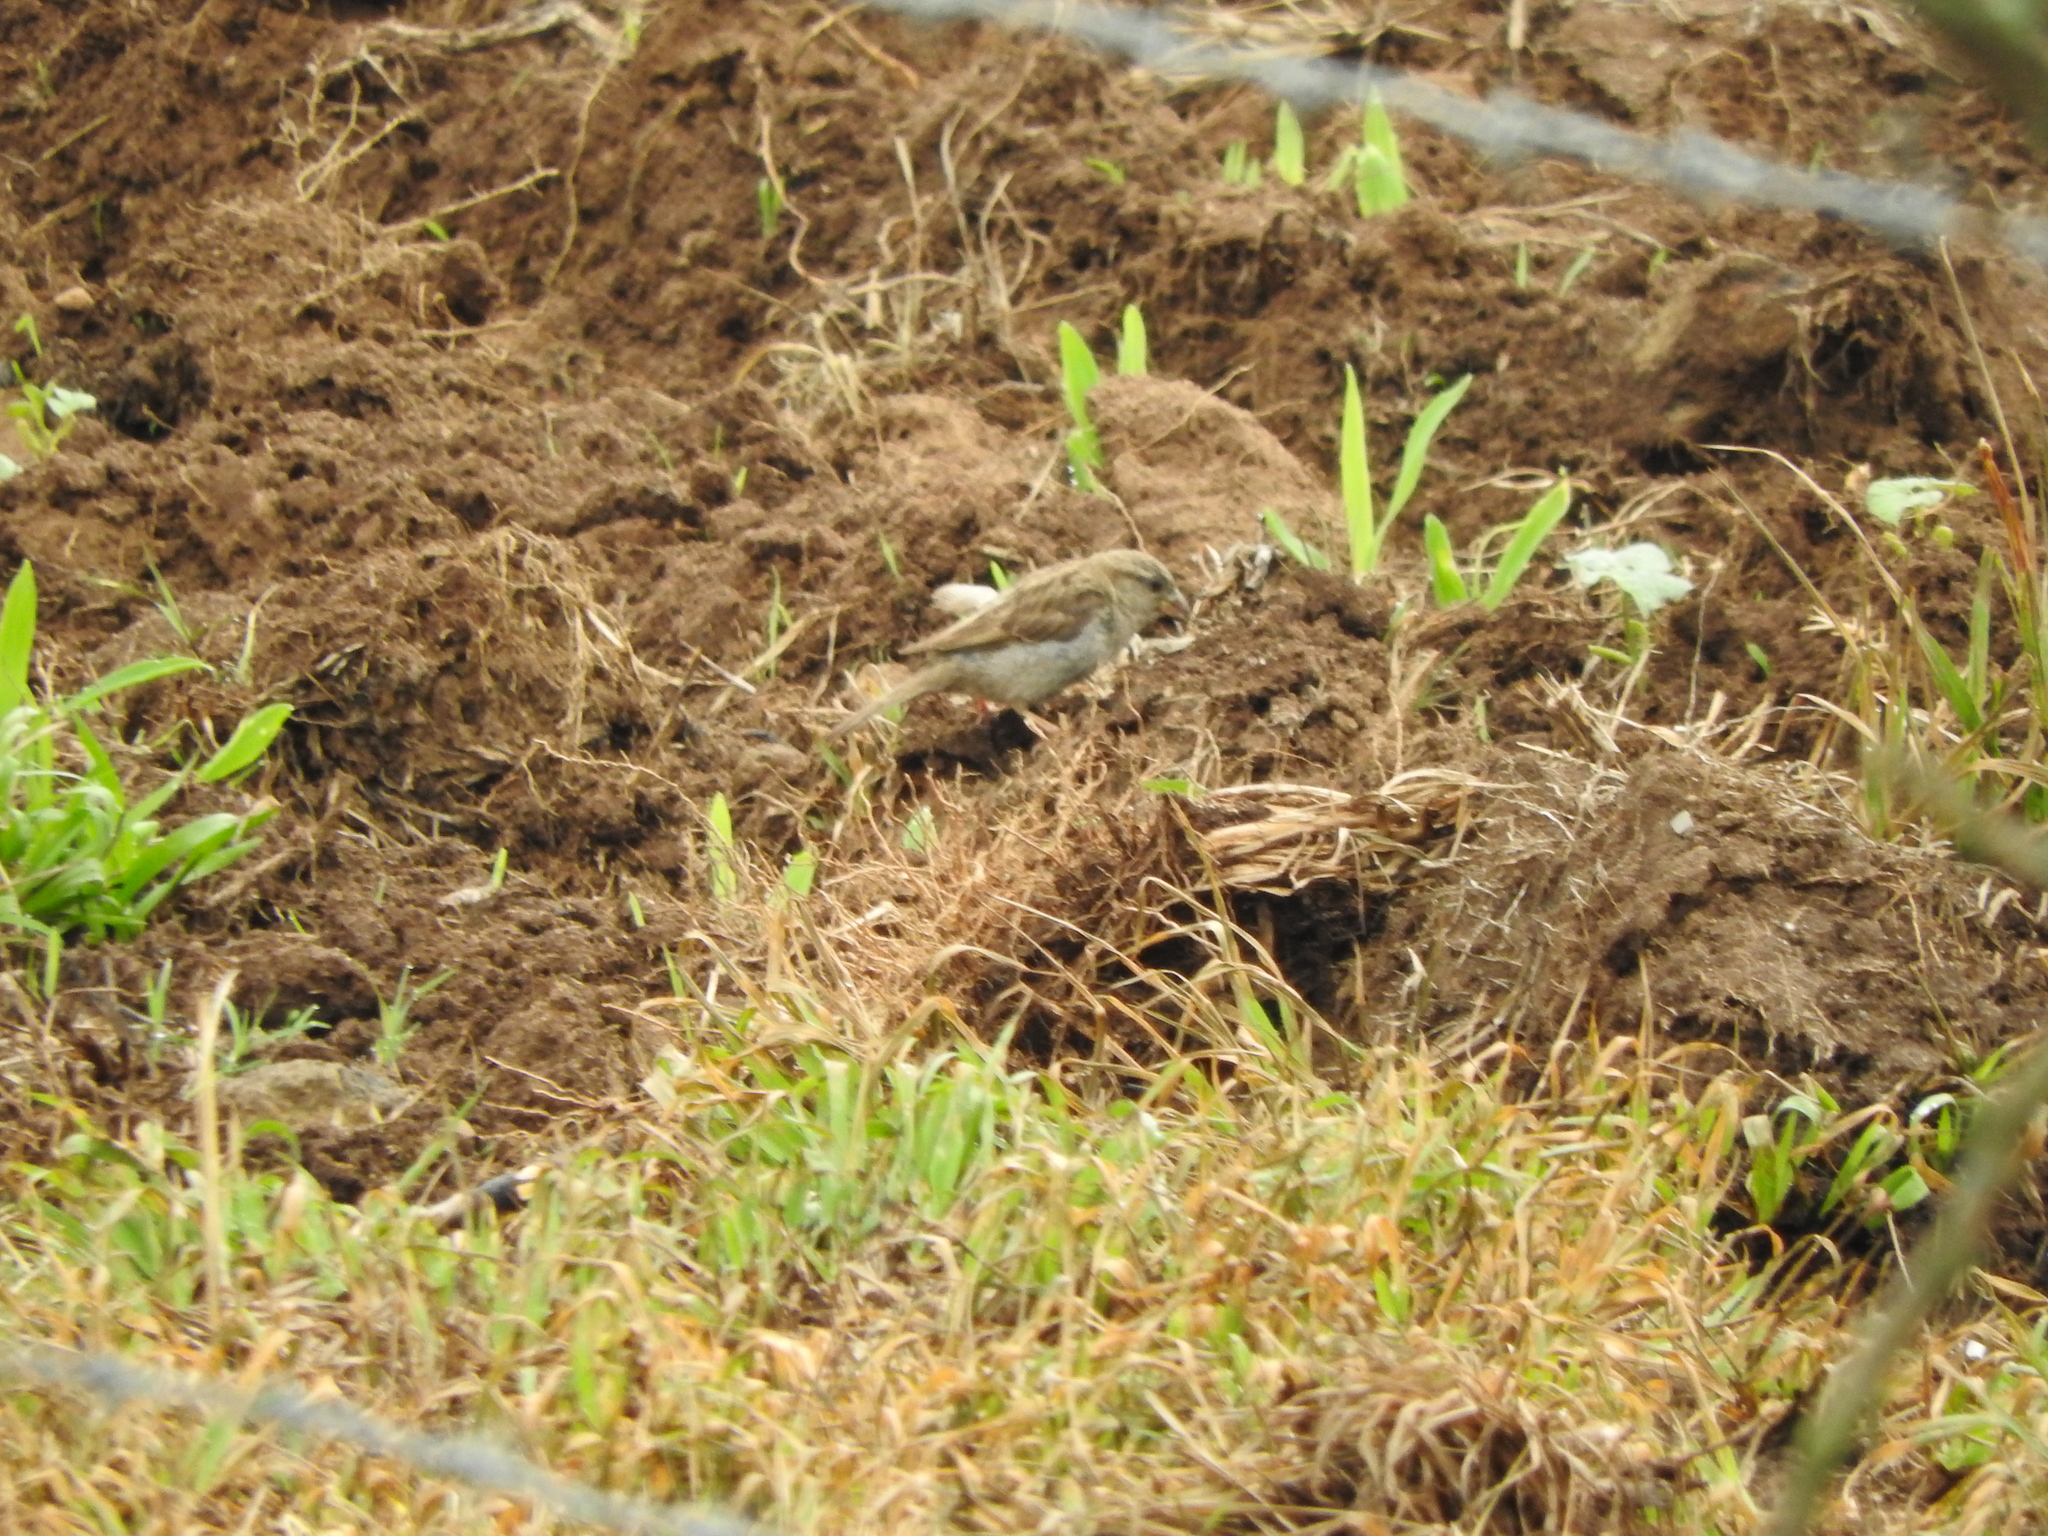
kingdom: Animalia
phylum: Chordata
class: Aves
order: Passeriformes
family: Passeridae
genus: Passer
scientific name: Passer domesticus
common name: House sparrow
